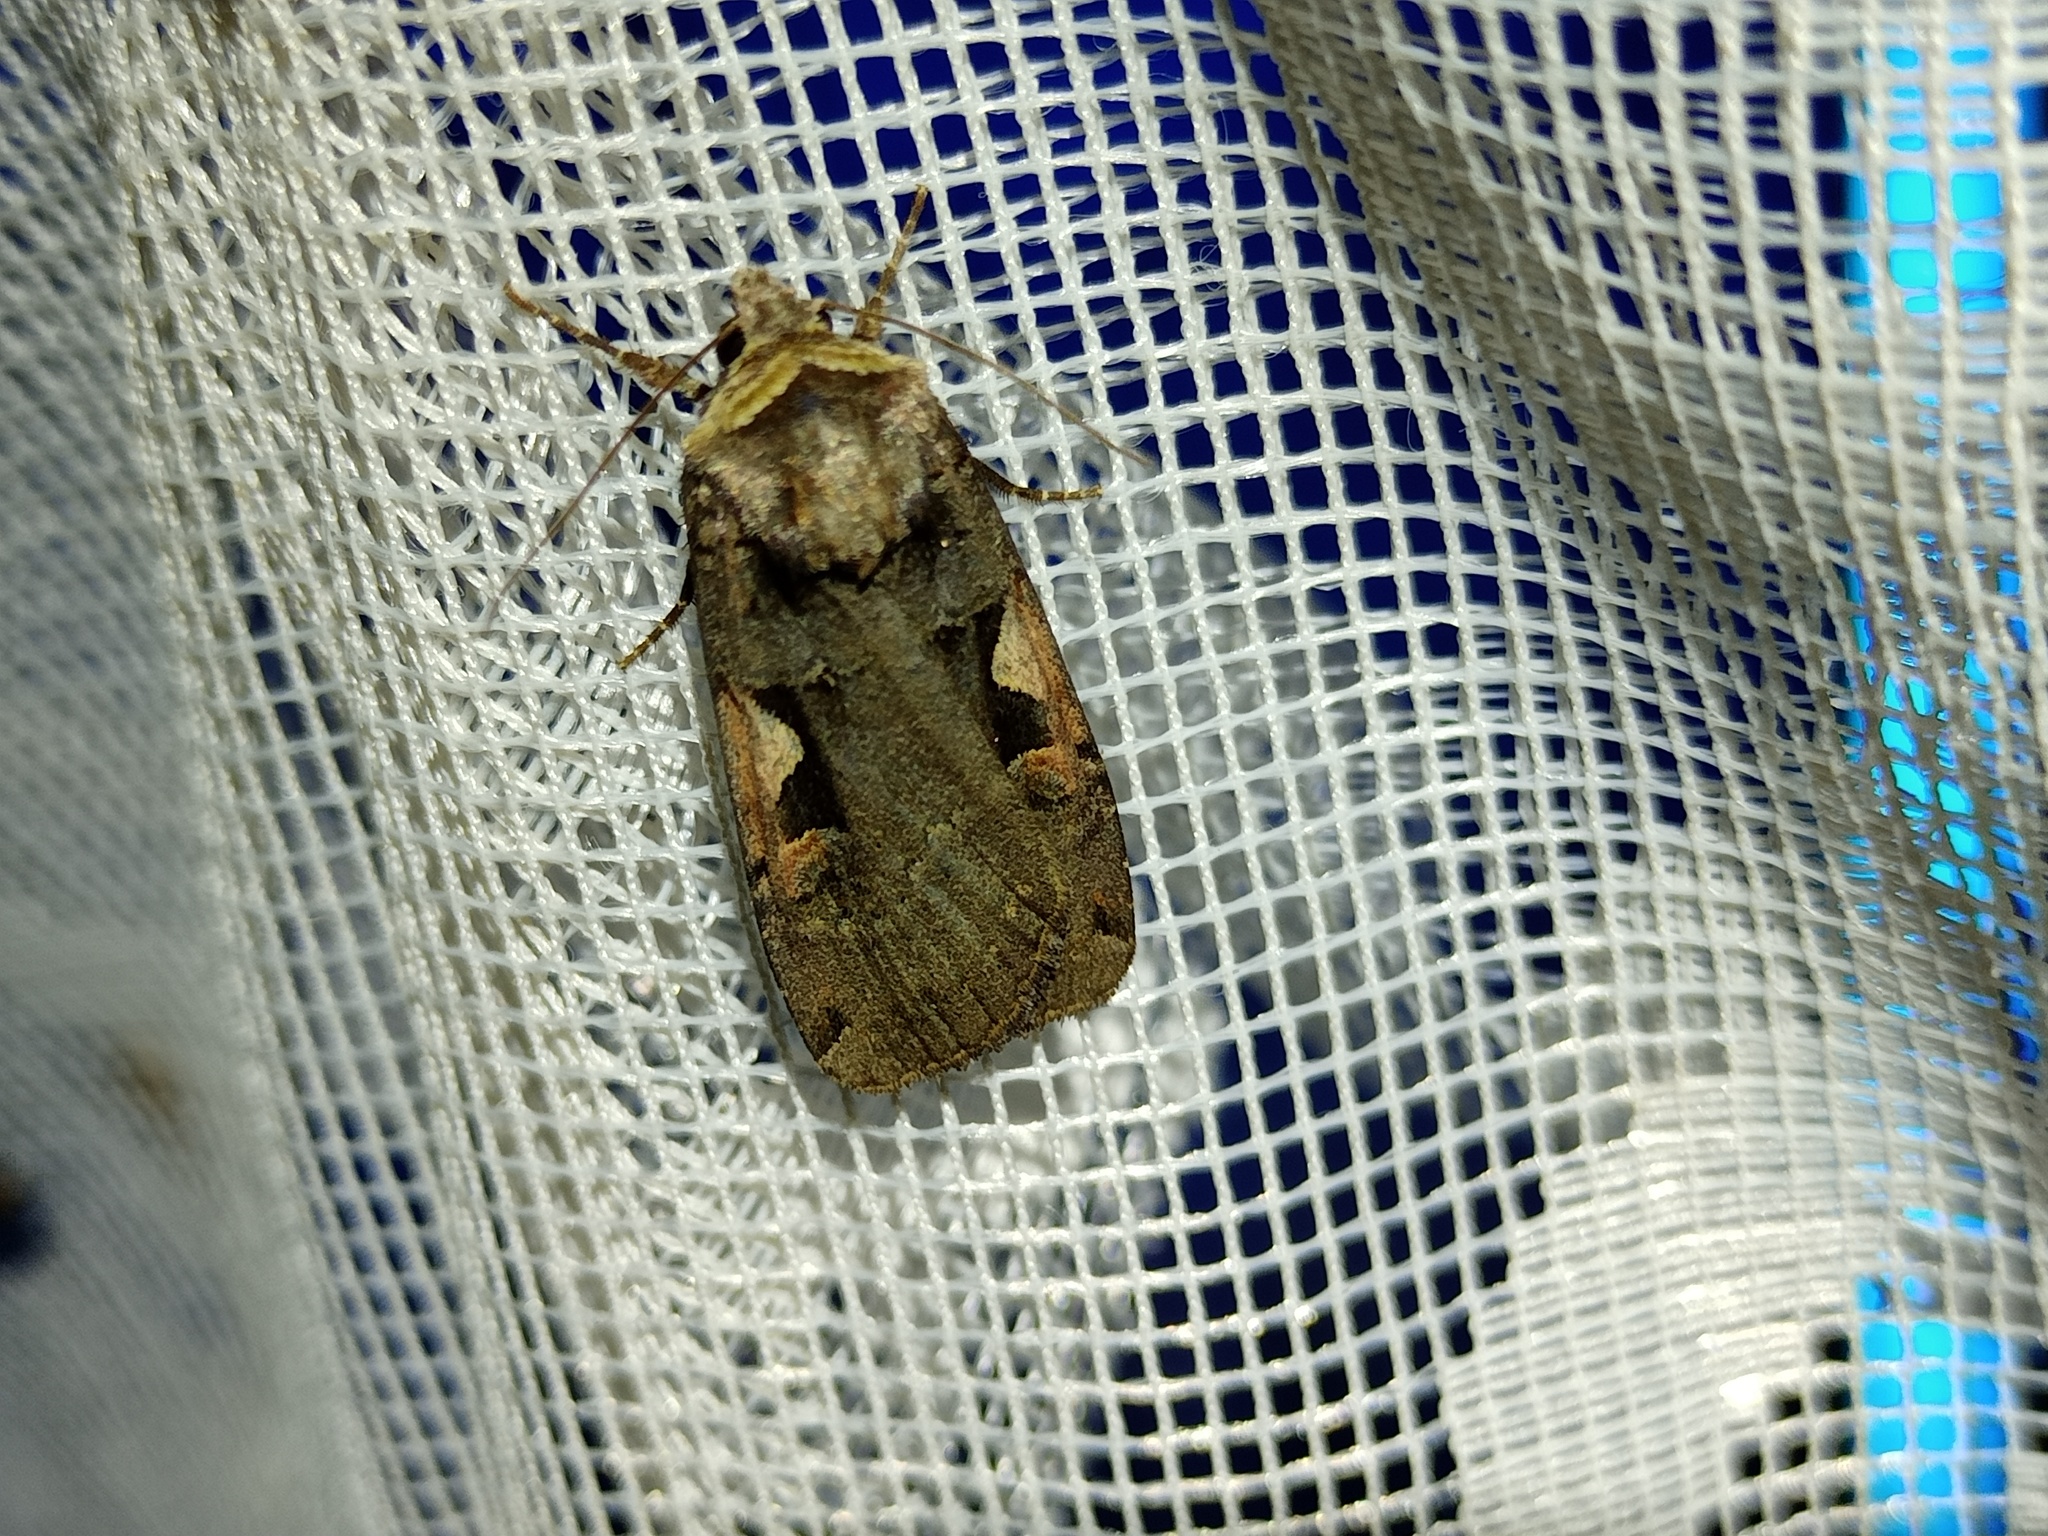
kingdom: Animalia
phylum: Arthropoda
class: Insecta
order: Lepidoptera
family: Noctuidae
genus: Xestia
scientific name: Xestia c-nigrum
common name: Setaceous hebrew character
